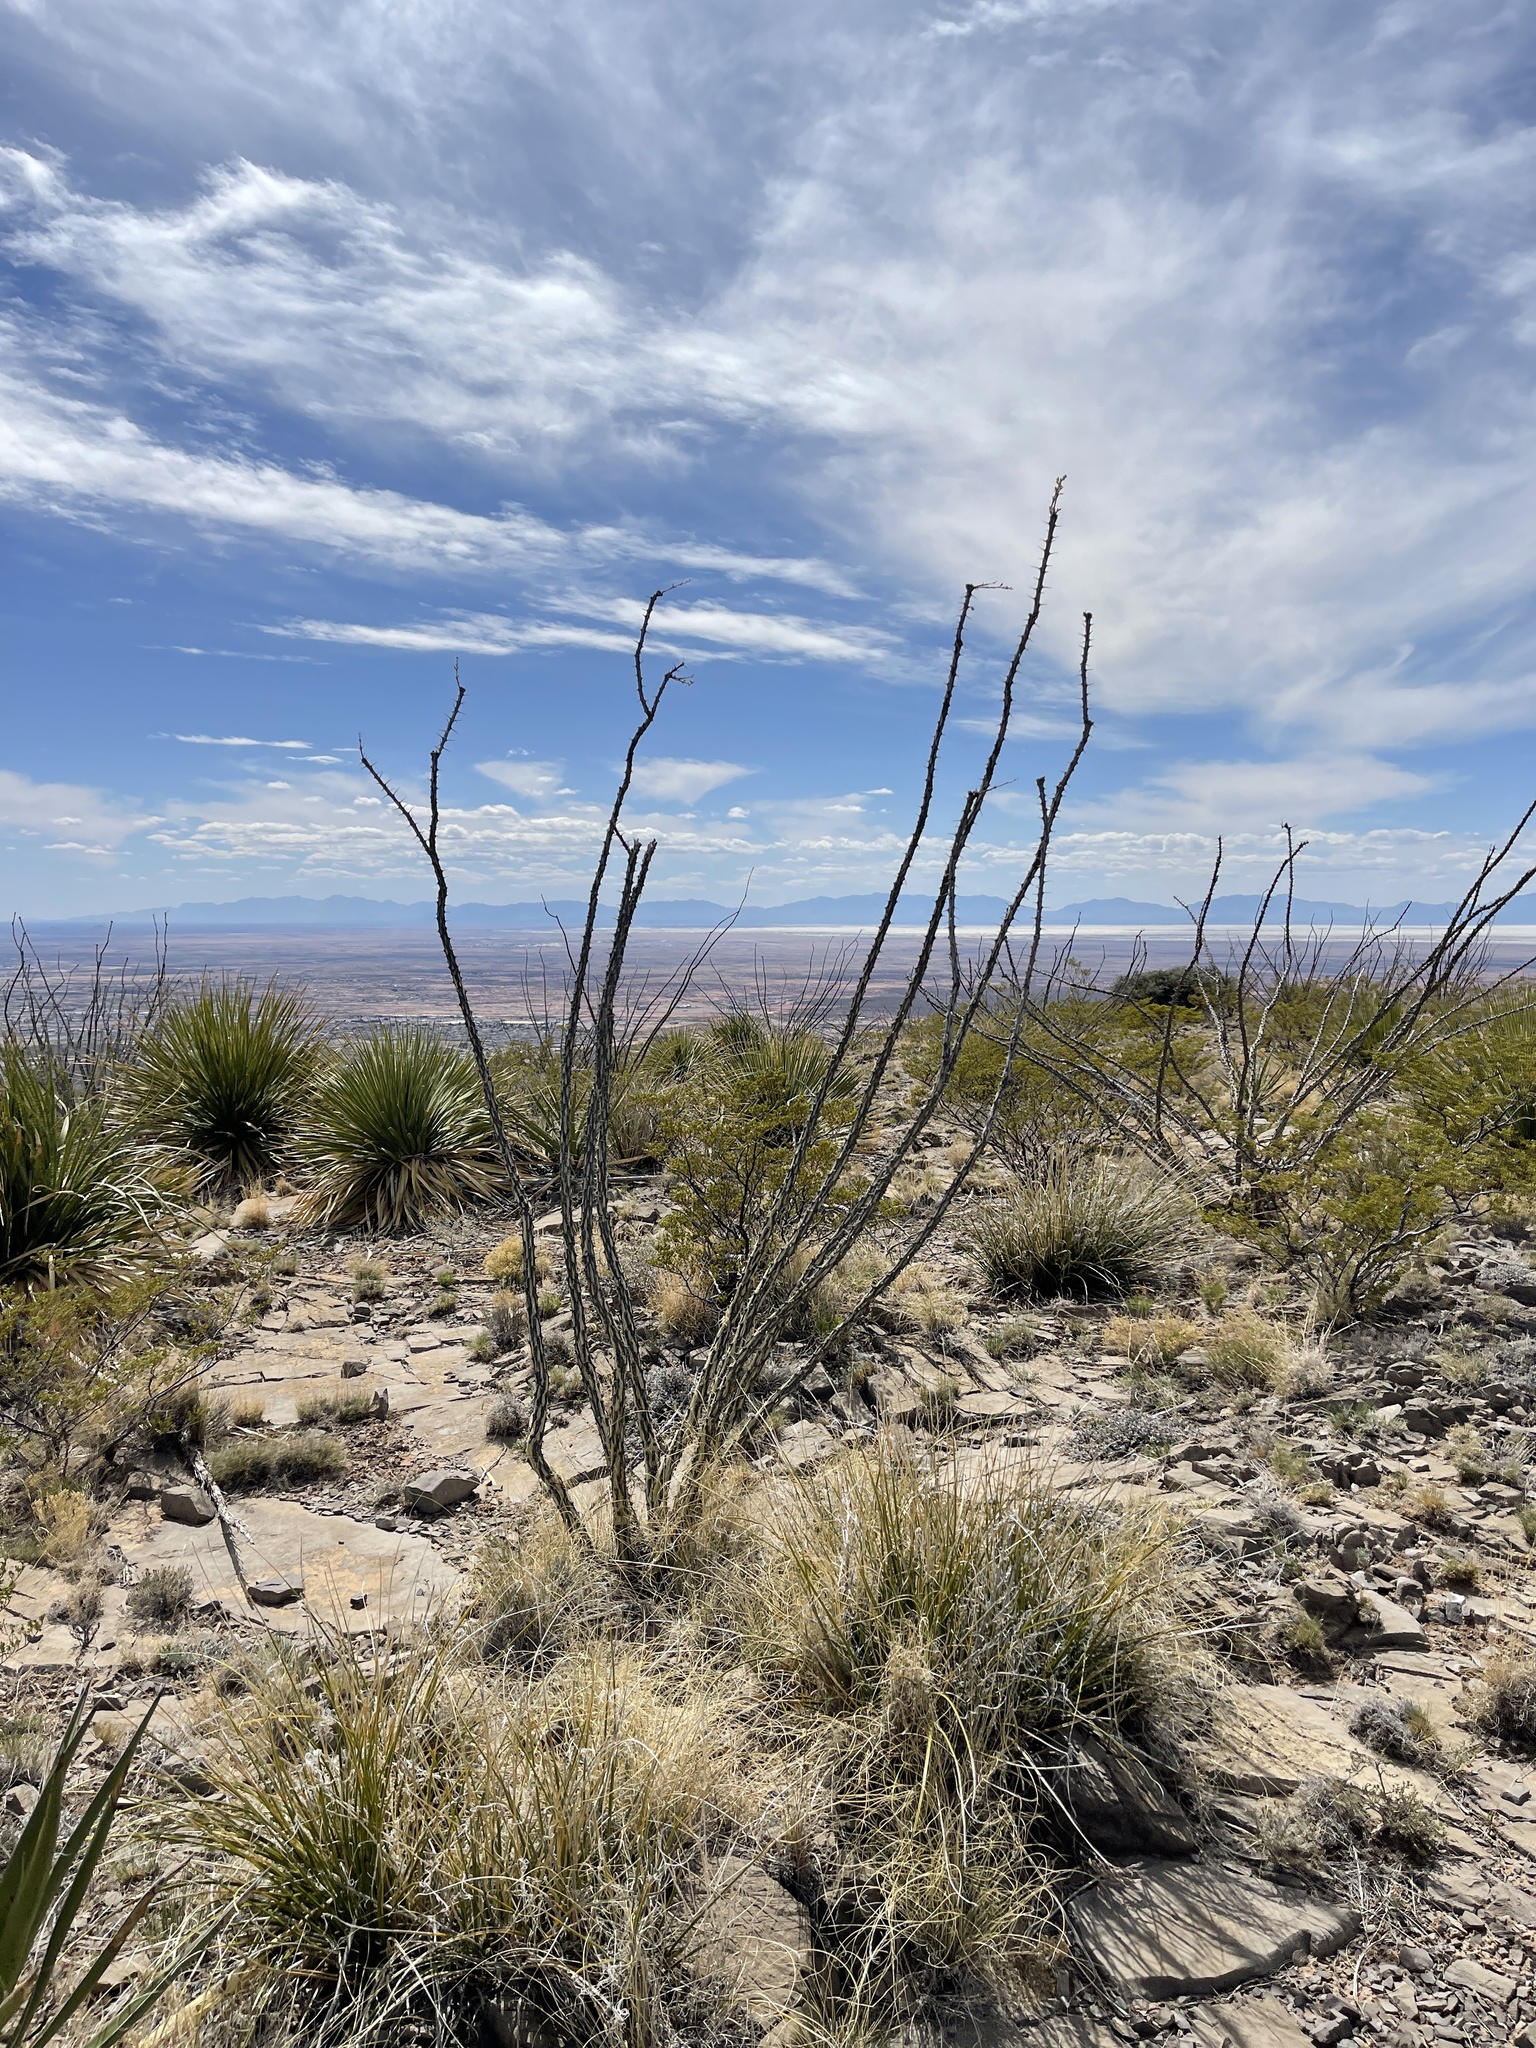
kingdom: Plantae
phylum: Tracheophyta
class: Magnoliopsida
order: Ericales
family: Fouquieriaceae
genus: Fouquieria
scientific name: Fouquieria splendens
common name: Vine-cactus
